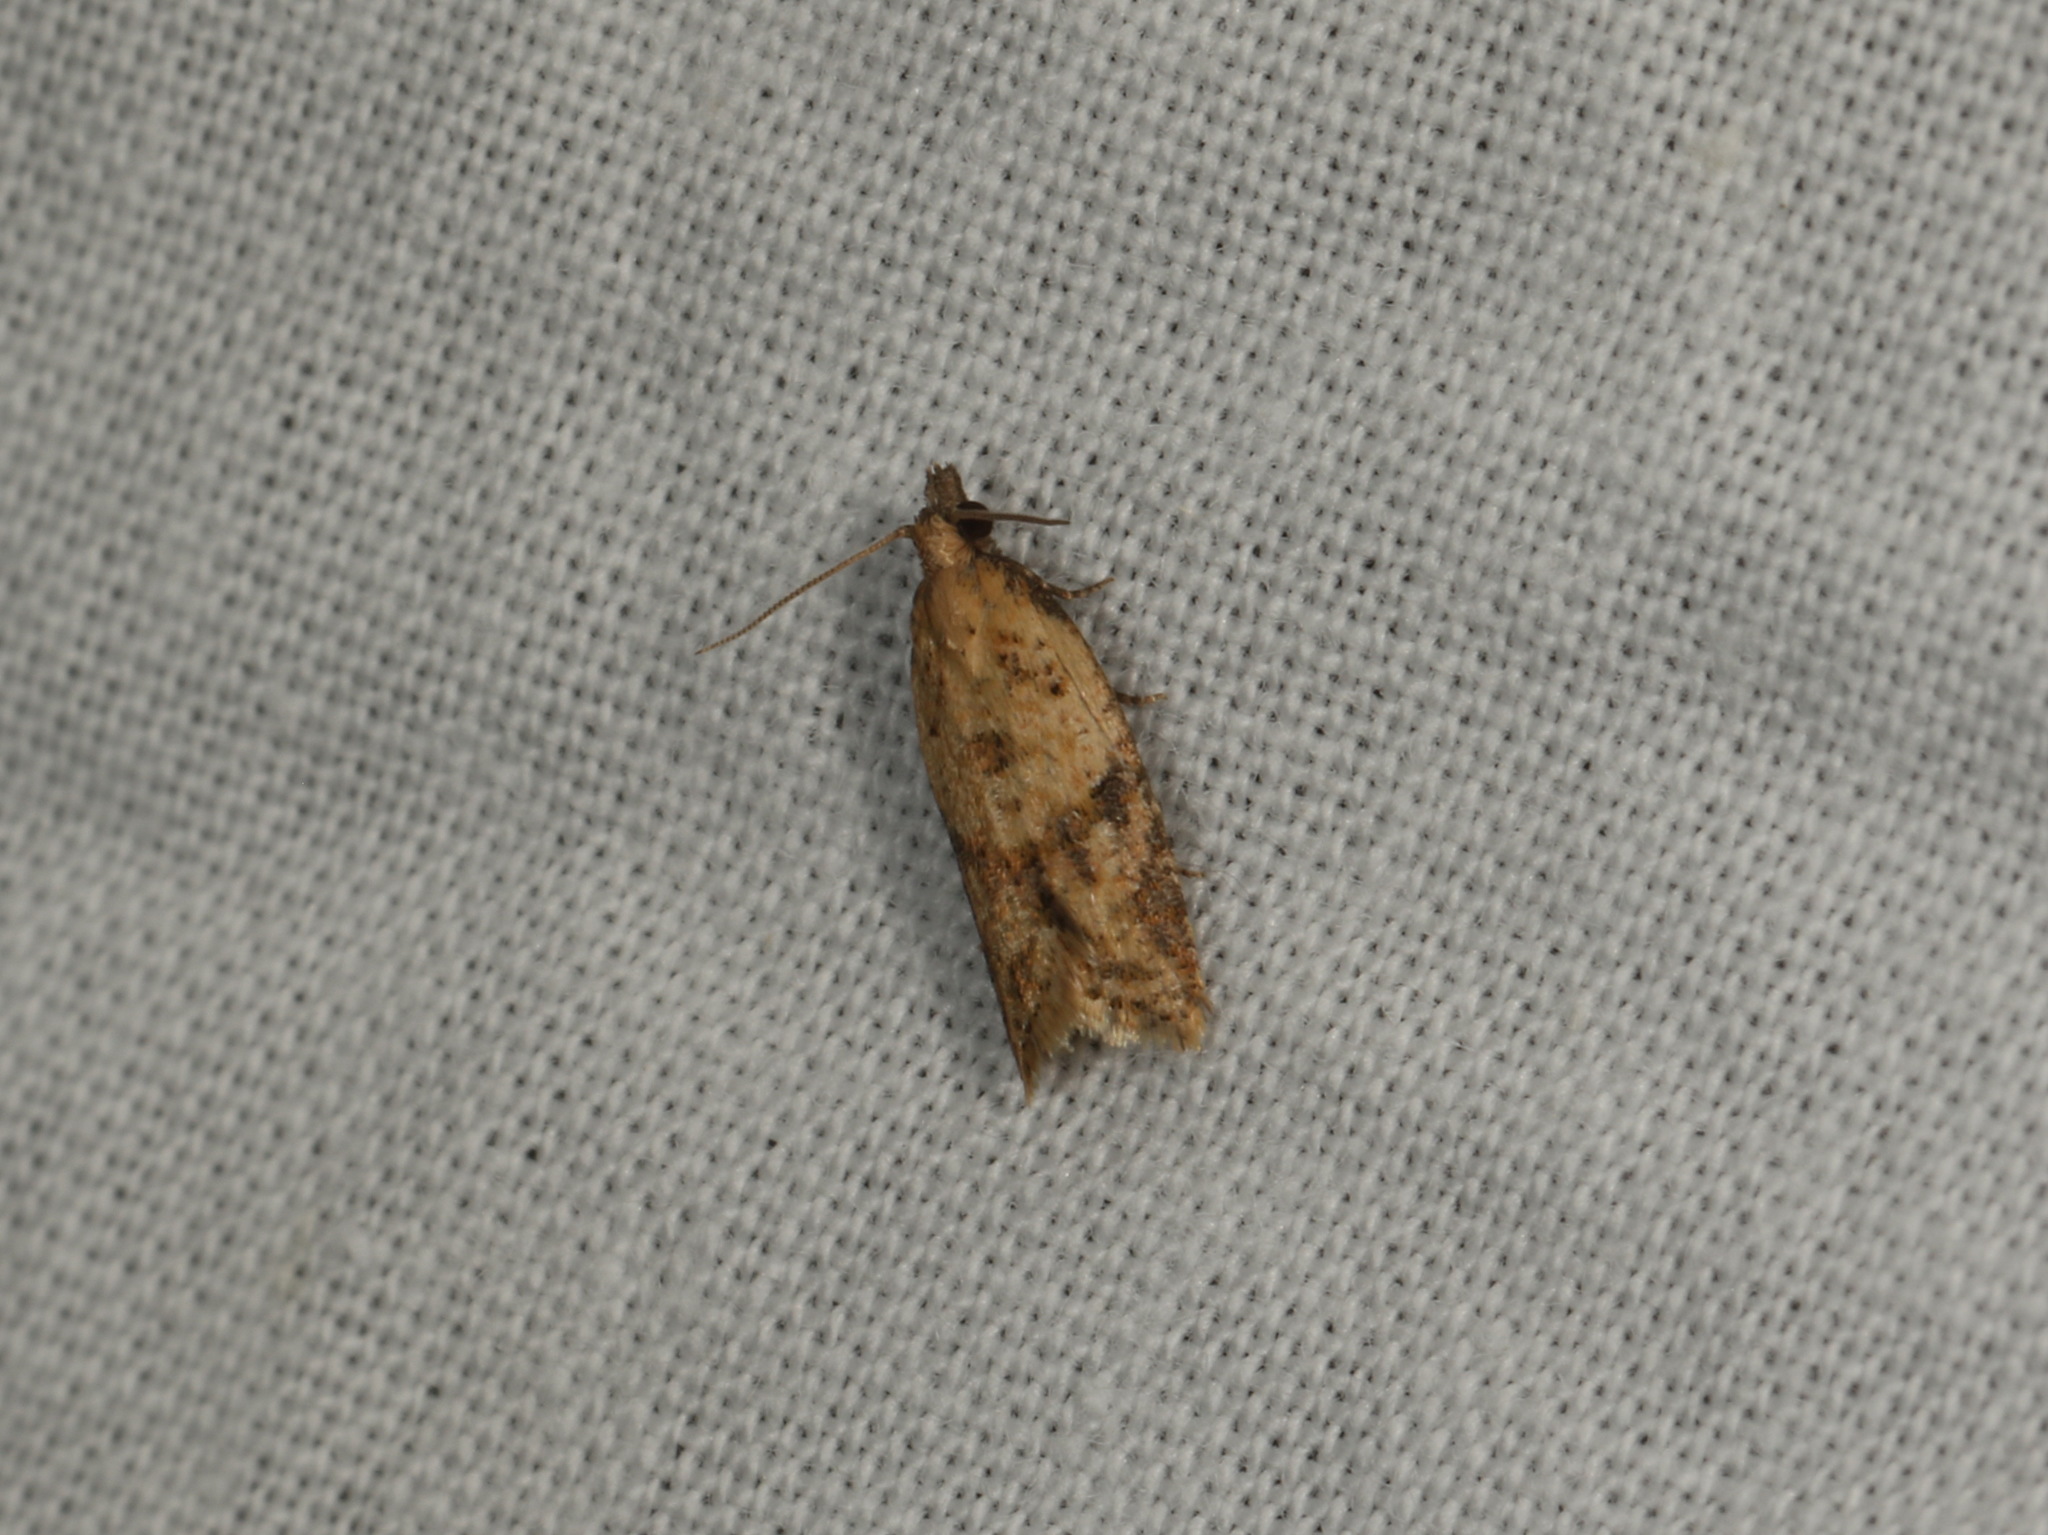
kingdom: Animalia
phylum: Arthropoda
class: Insecta
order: Lepidoptera
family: Tortricidae
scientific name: Tortricidae
